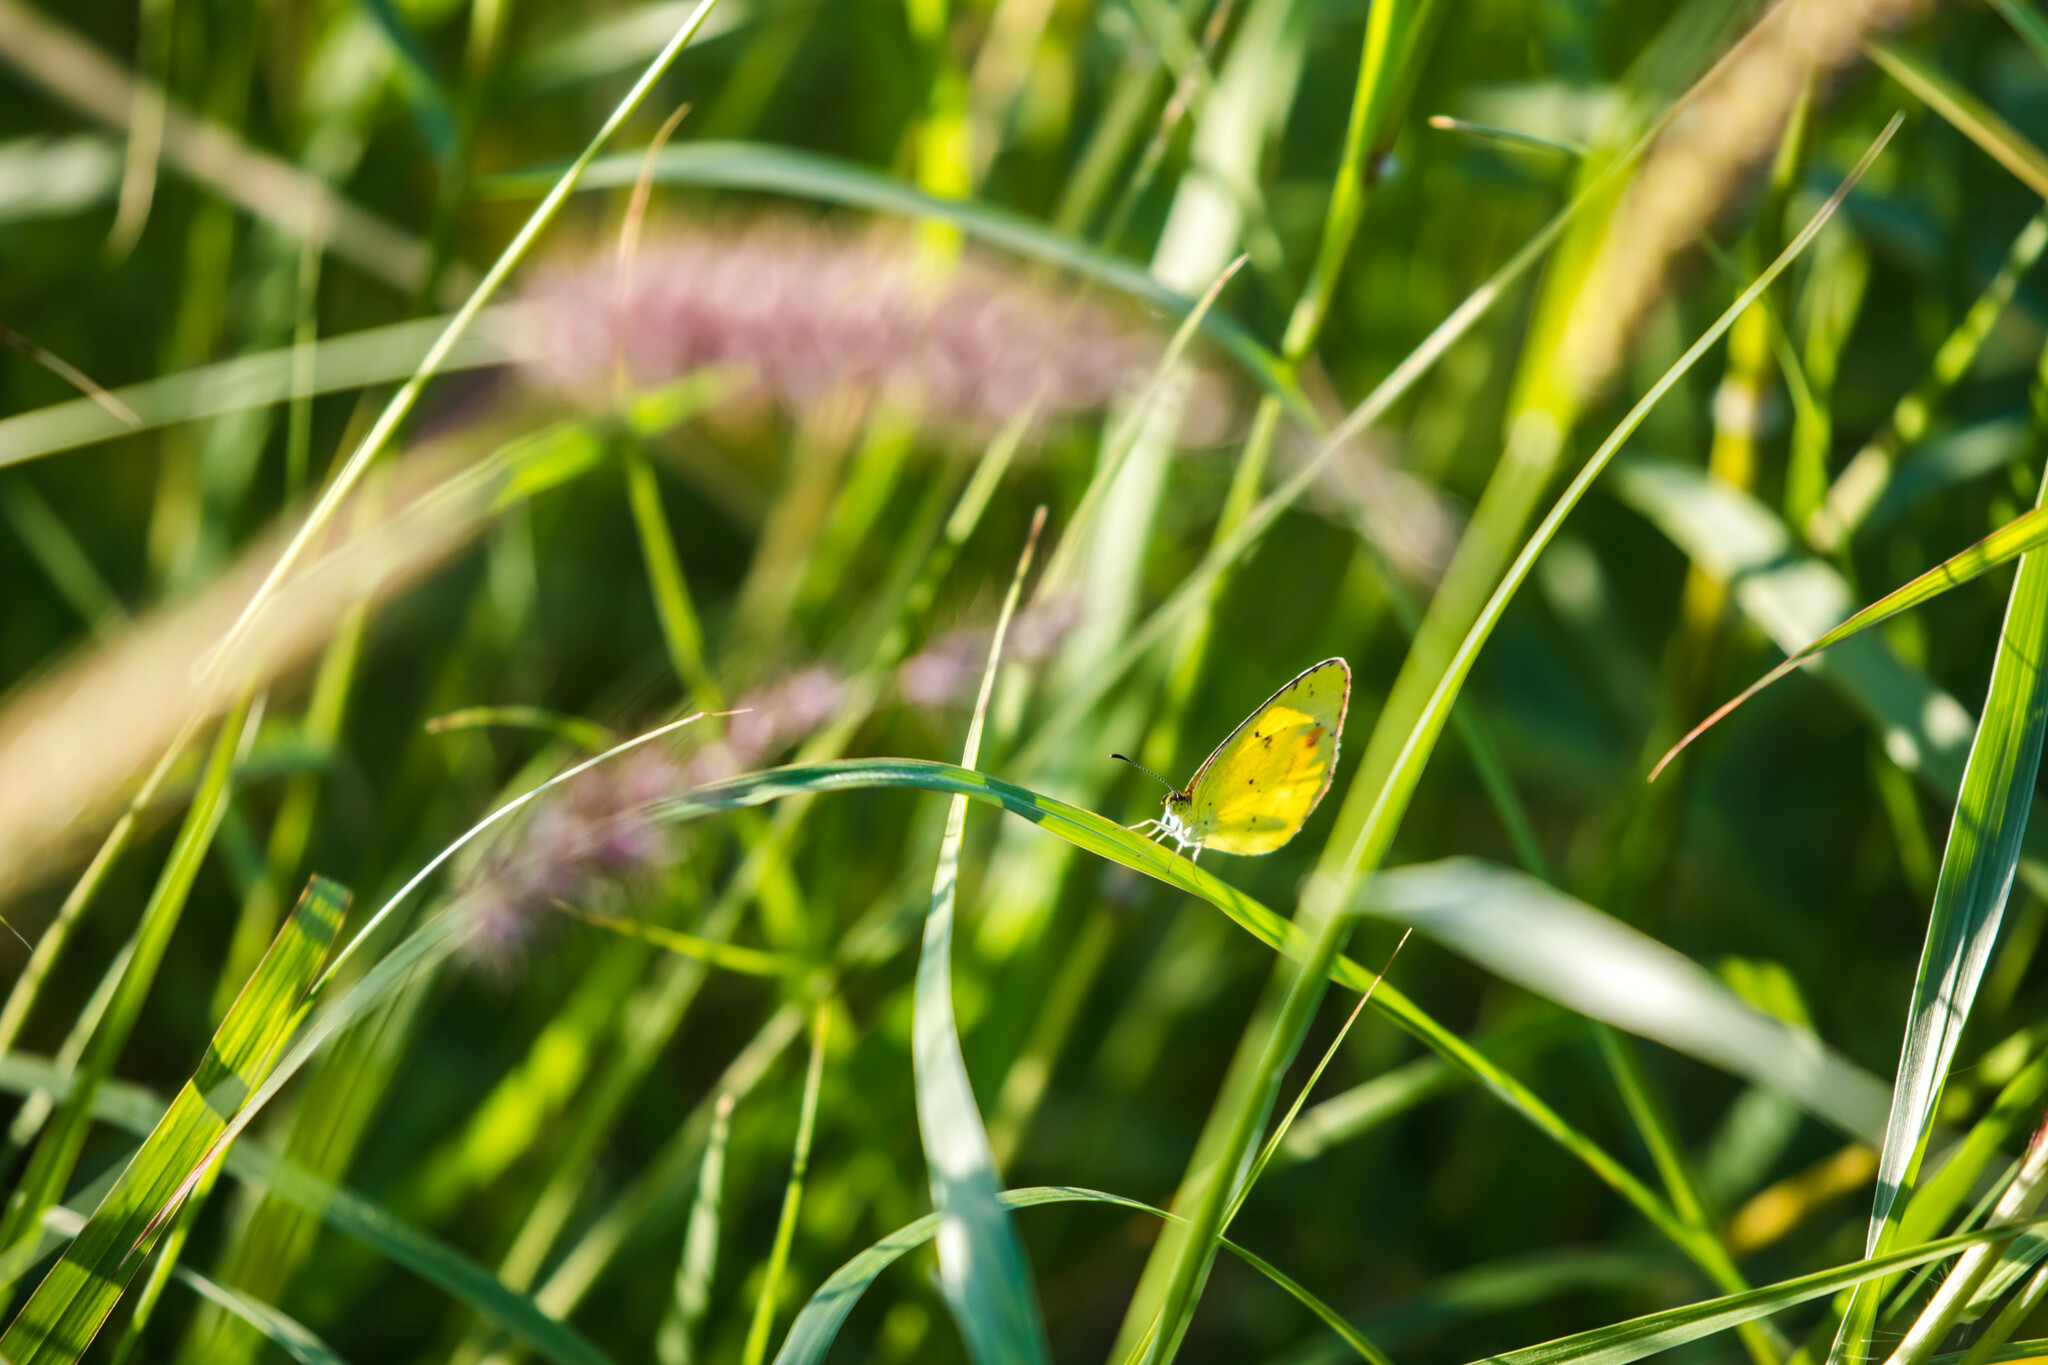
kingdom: Animalia
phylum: Arthropoda
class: Insecta
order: Lepidoptera
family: Pieridae
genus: Pyrisitia
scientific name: Pyrisitia lisa
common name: Little yellow
